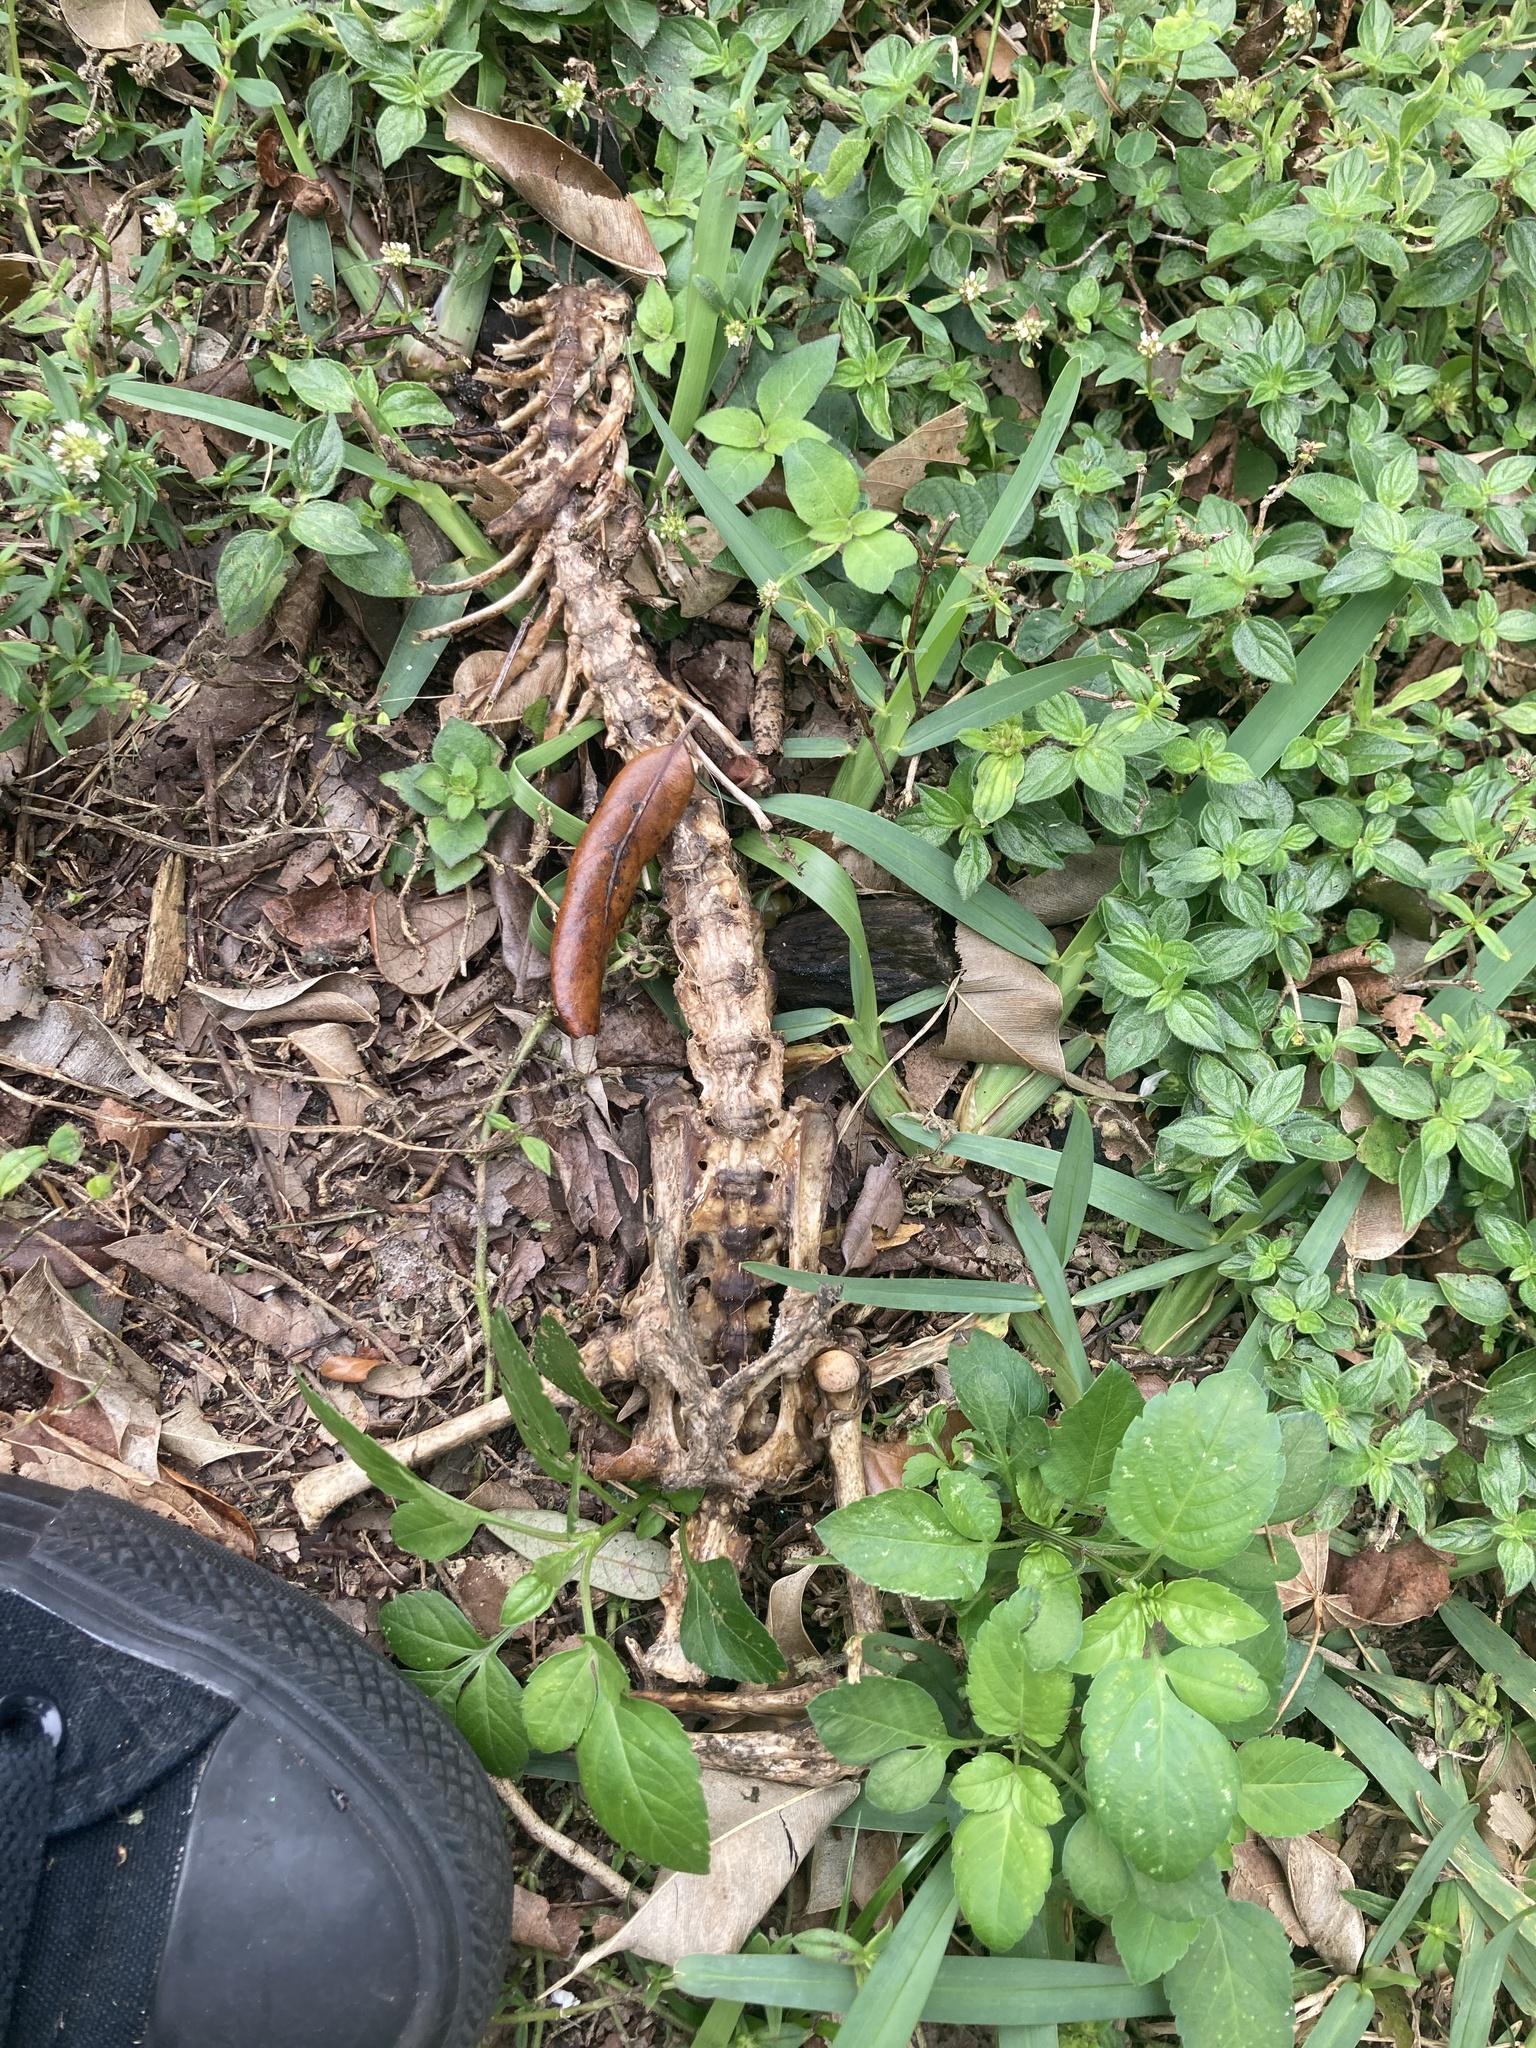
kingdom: Animalia
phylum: Chordata
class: Mammalia
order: Didelphimorphia
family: Didelphidae
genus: Didelphis
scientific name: Didelphis virginiana
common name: Virginia opossum
